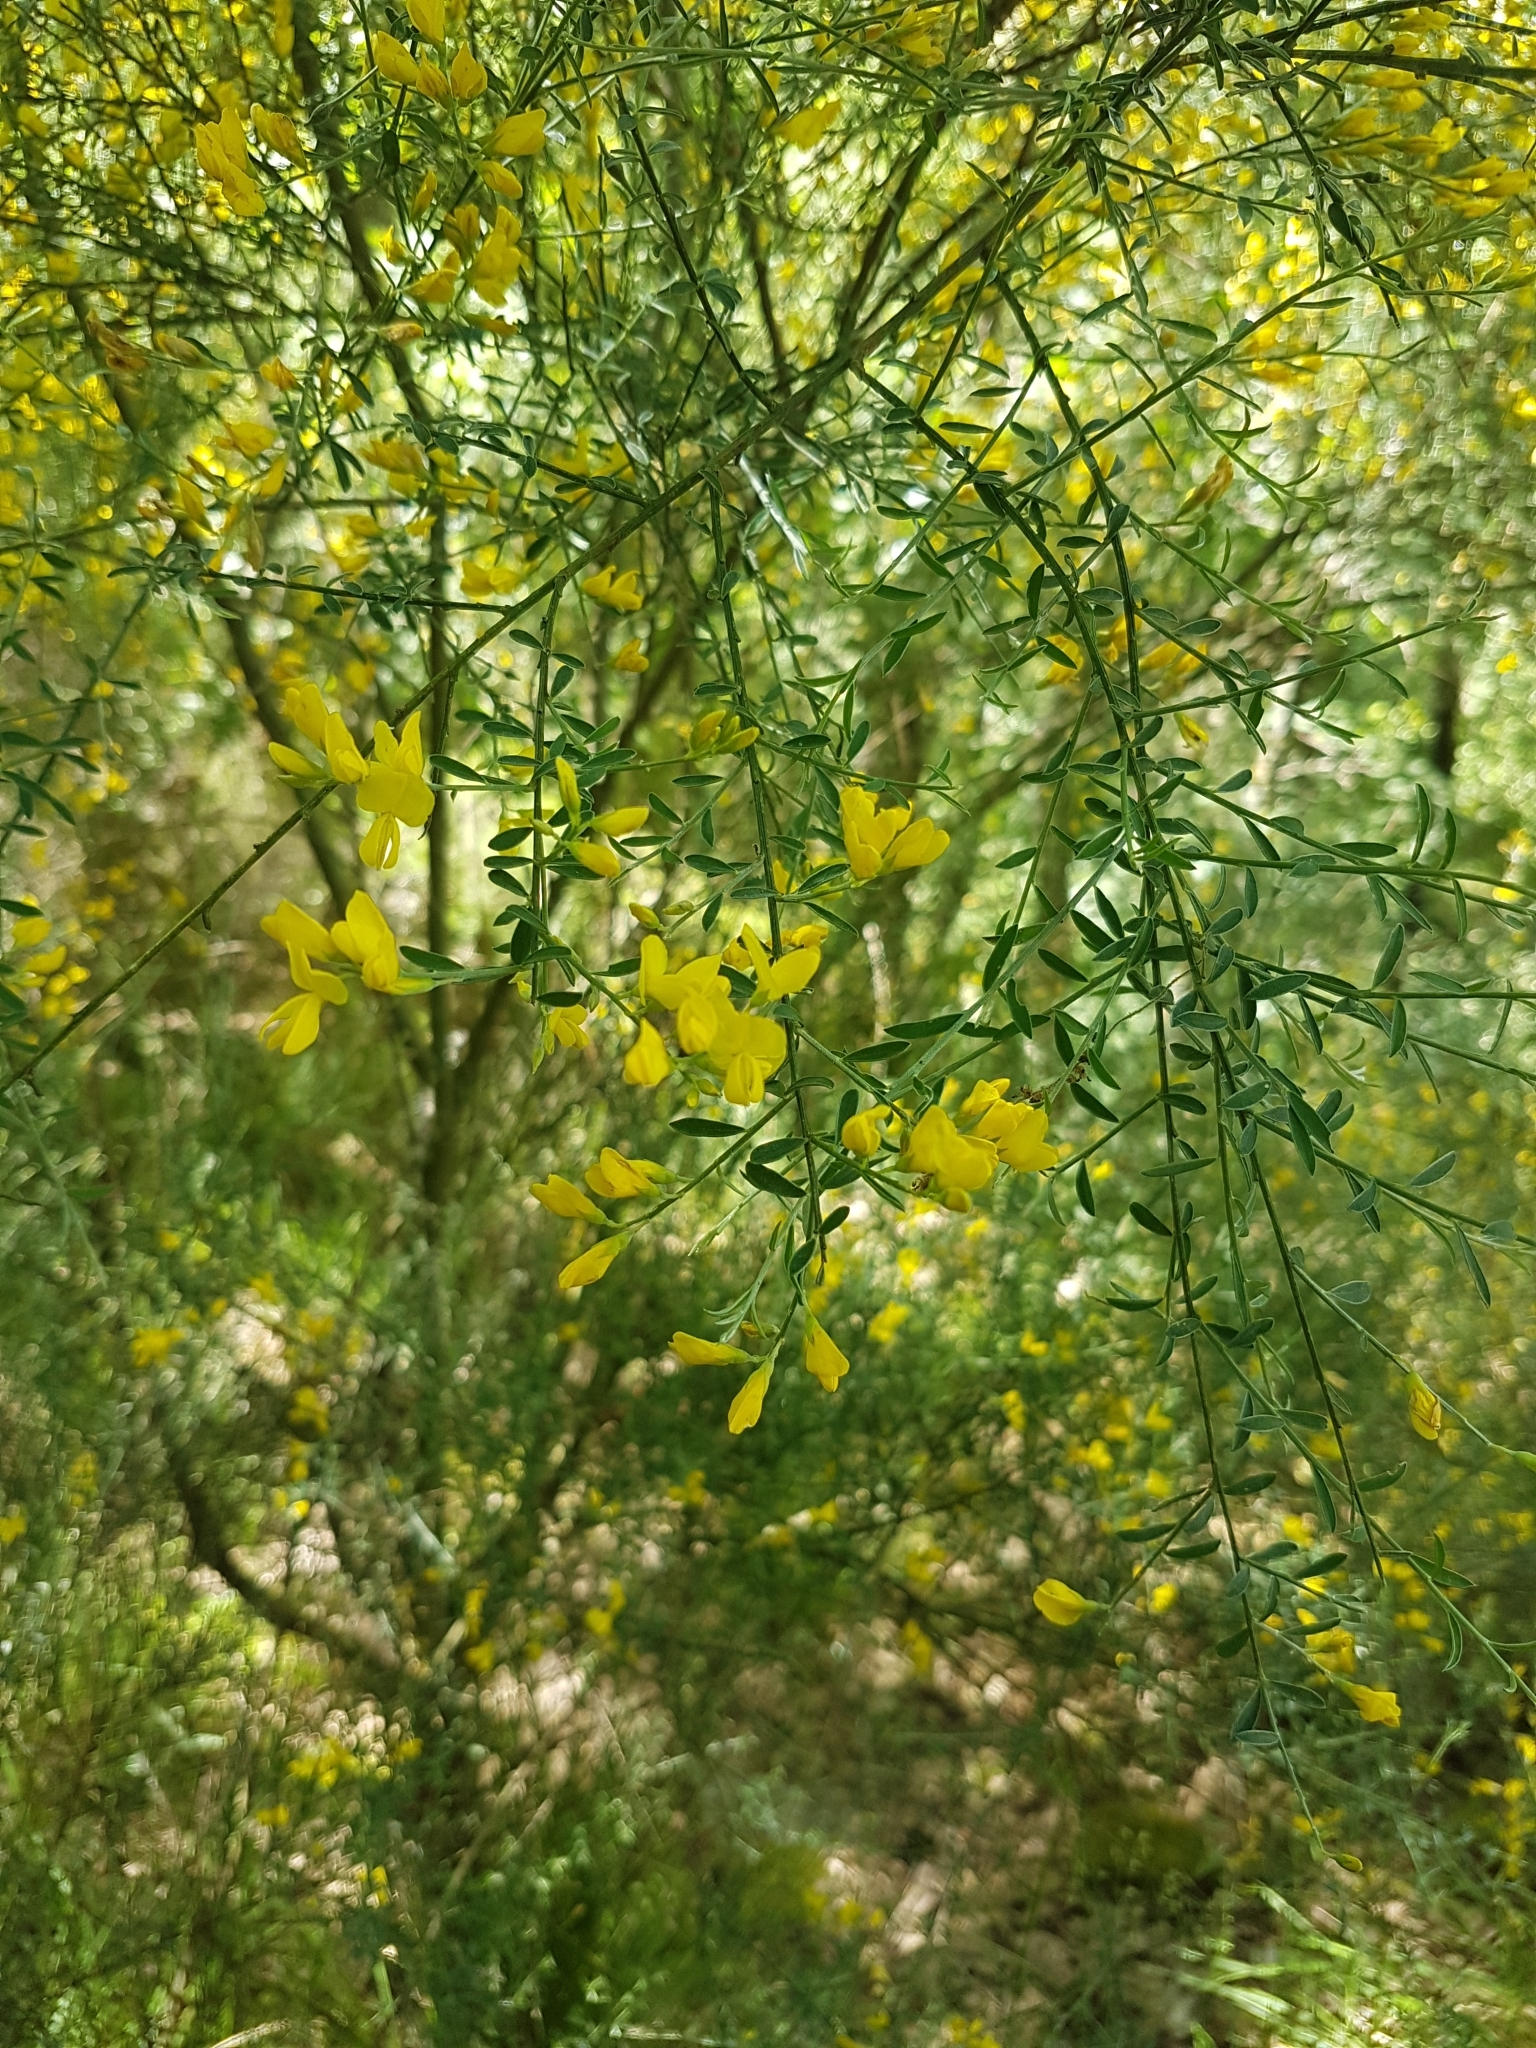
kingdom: Plantae
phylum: Tracheophyta
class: Magnoliopsida
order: Fabales
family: Fabaceae
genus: Genista
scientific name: Genista florida
